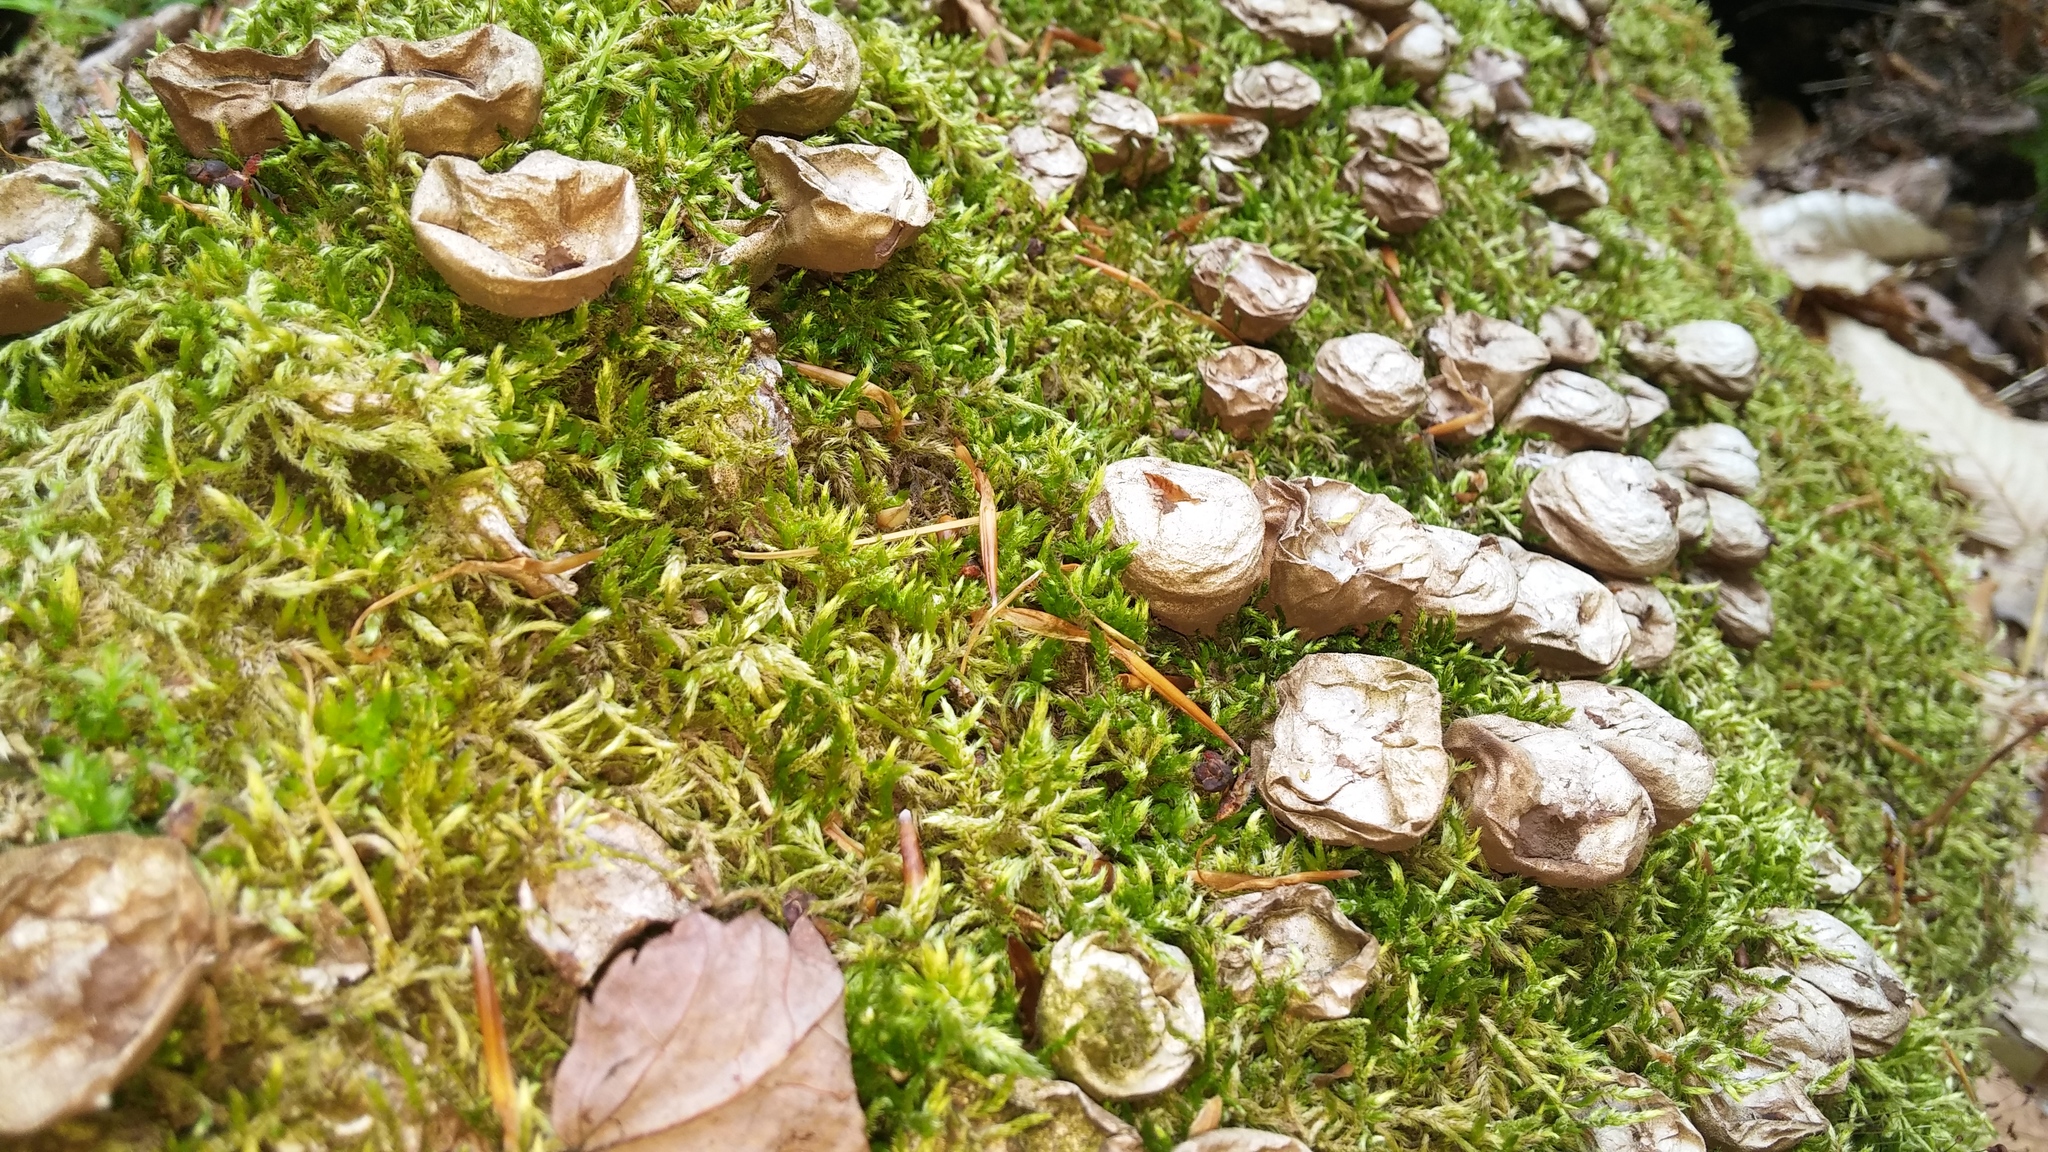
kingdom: Fungi
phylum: Basidiomycota
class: Agaricomycetes
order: Agaricales
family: Lycoperdaceae
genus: Apioperdon
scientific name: Apioperdon pyriforme
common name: Pear-shaped puffball
